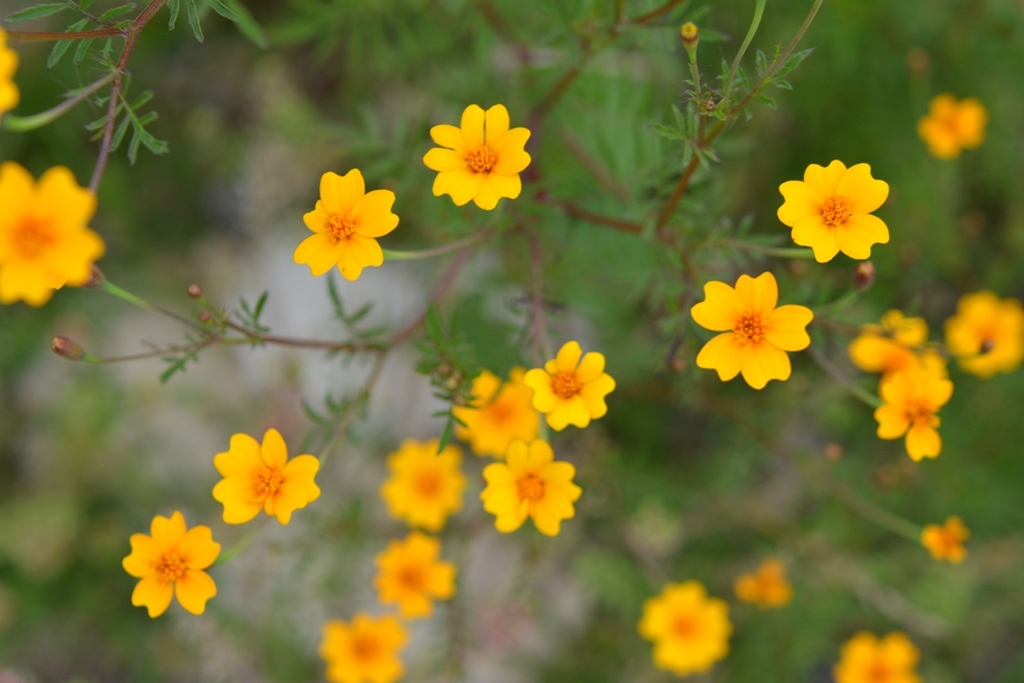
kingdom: Plantae
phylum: Tracheophyta
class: Magnoliopsida
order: Asterales
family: Asteraceae
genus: Tagetes
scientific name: Tagetes tenuifolia
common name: Signet marigold
